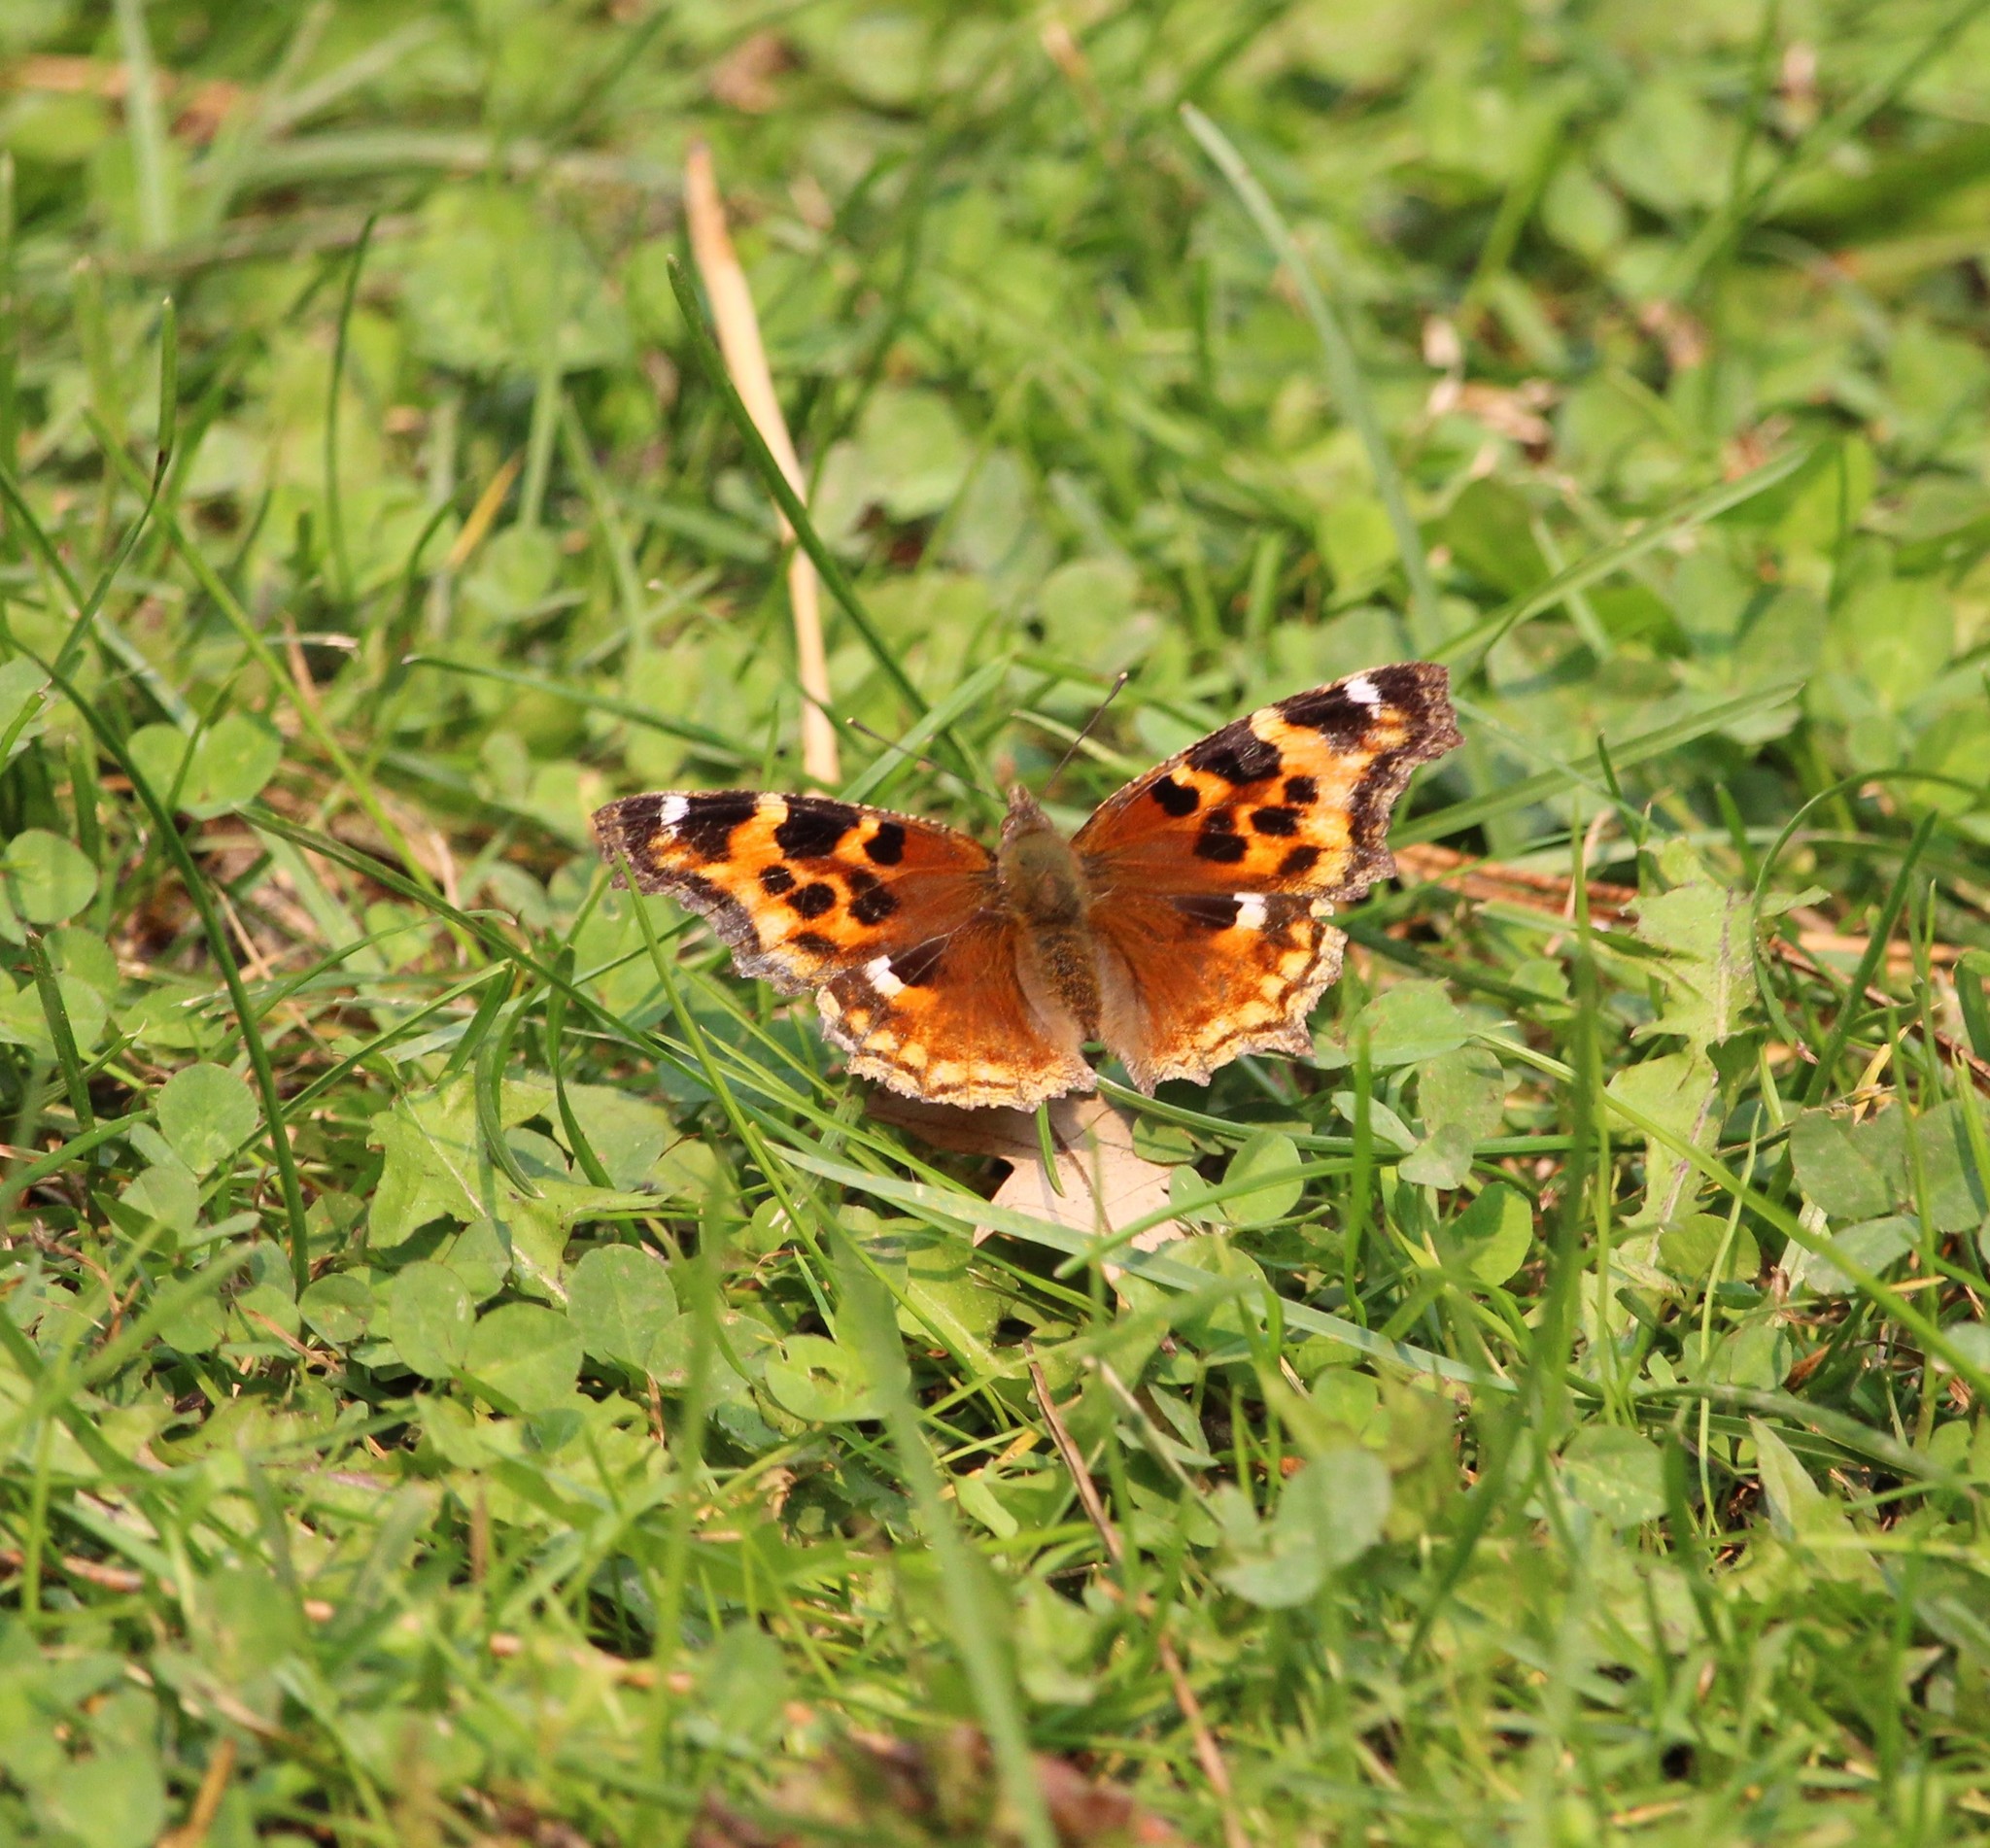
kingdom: Animalia
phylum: Arthropoda
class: Insecta
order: Lepidoptera
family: Nymphalidae
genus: Polygonia
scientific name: Polygonia vaualbum
